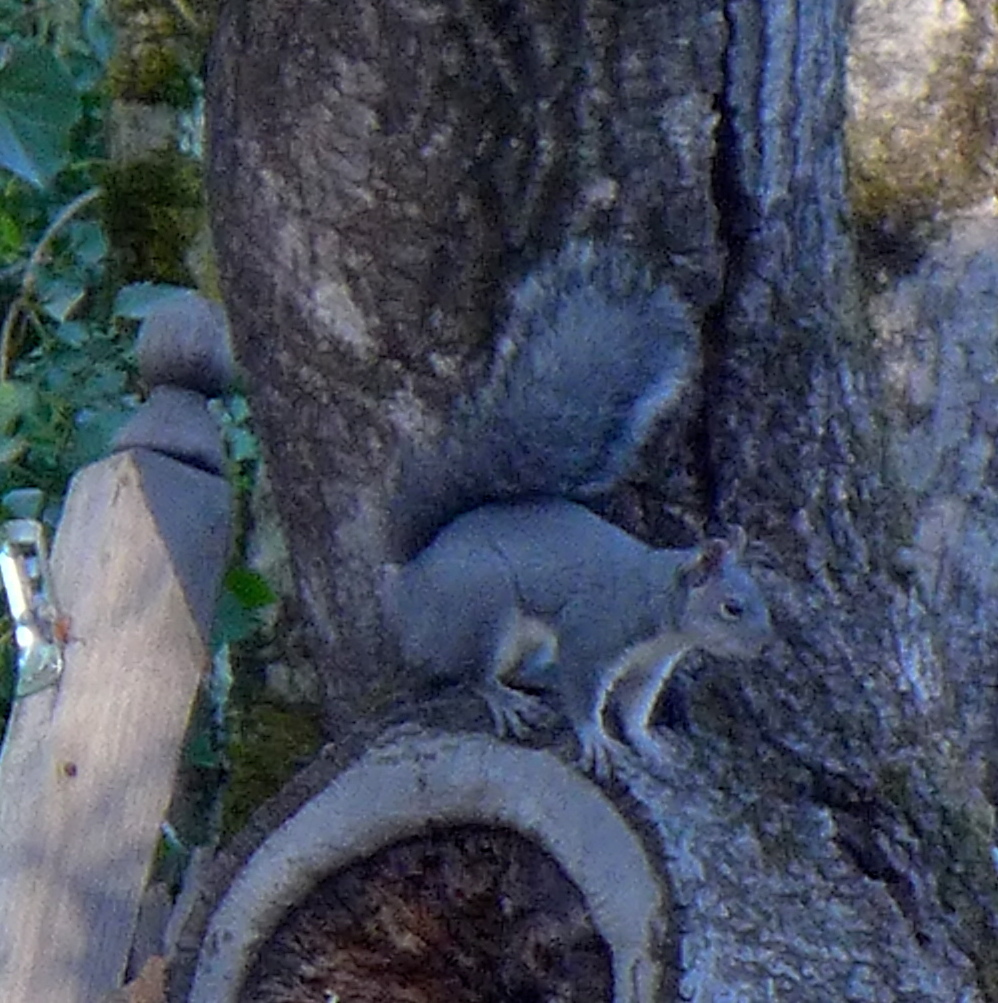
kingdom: Animalia
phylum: Chordata
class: Mammalia
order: Rodentia
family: Sciuridae
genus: Sciurus
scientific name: Sciurus griseus
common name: Western gray squirrel
